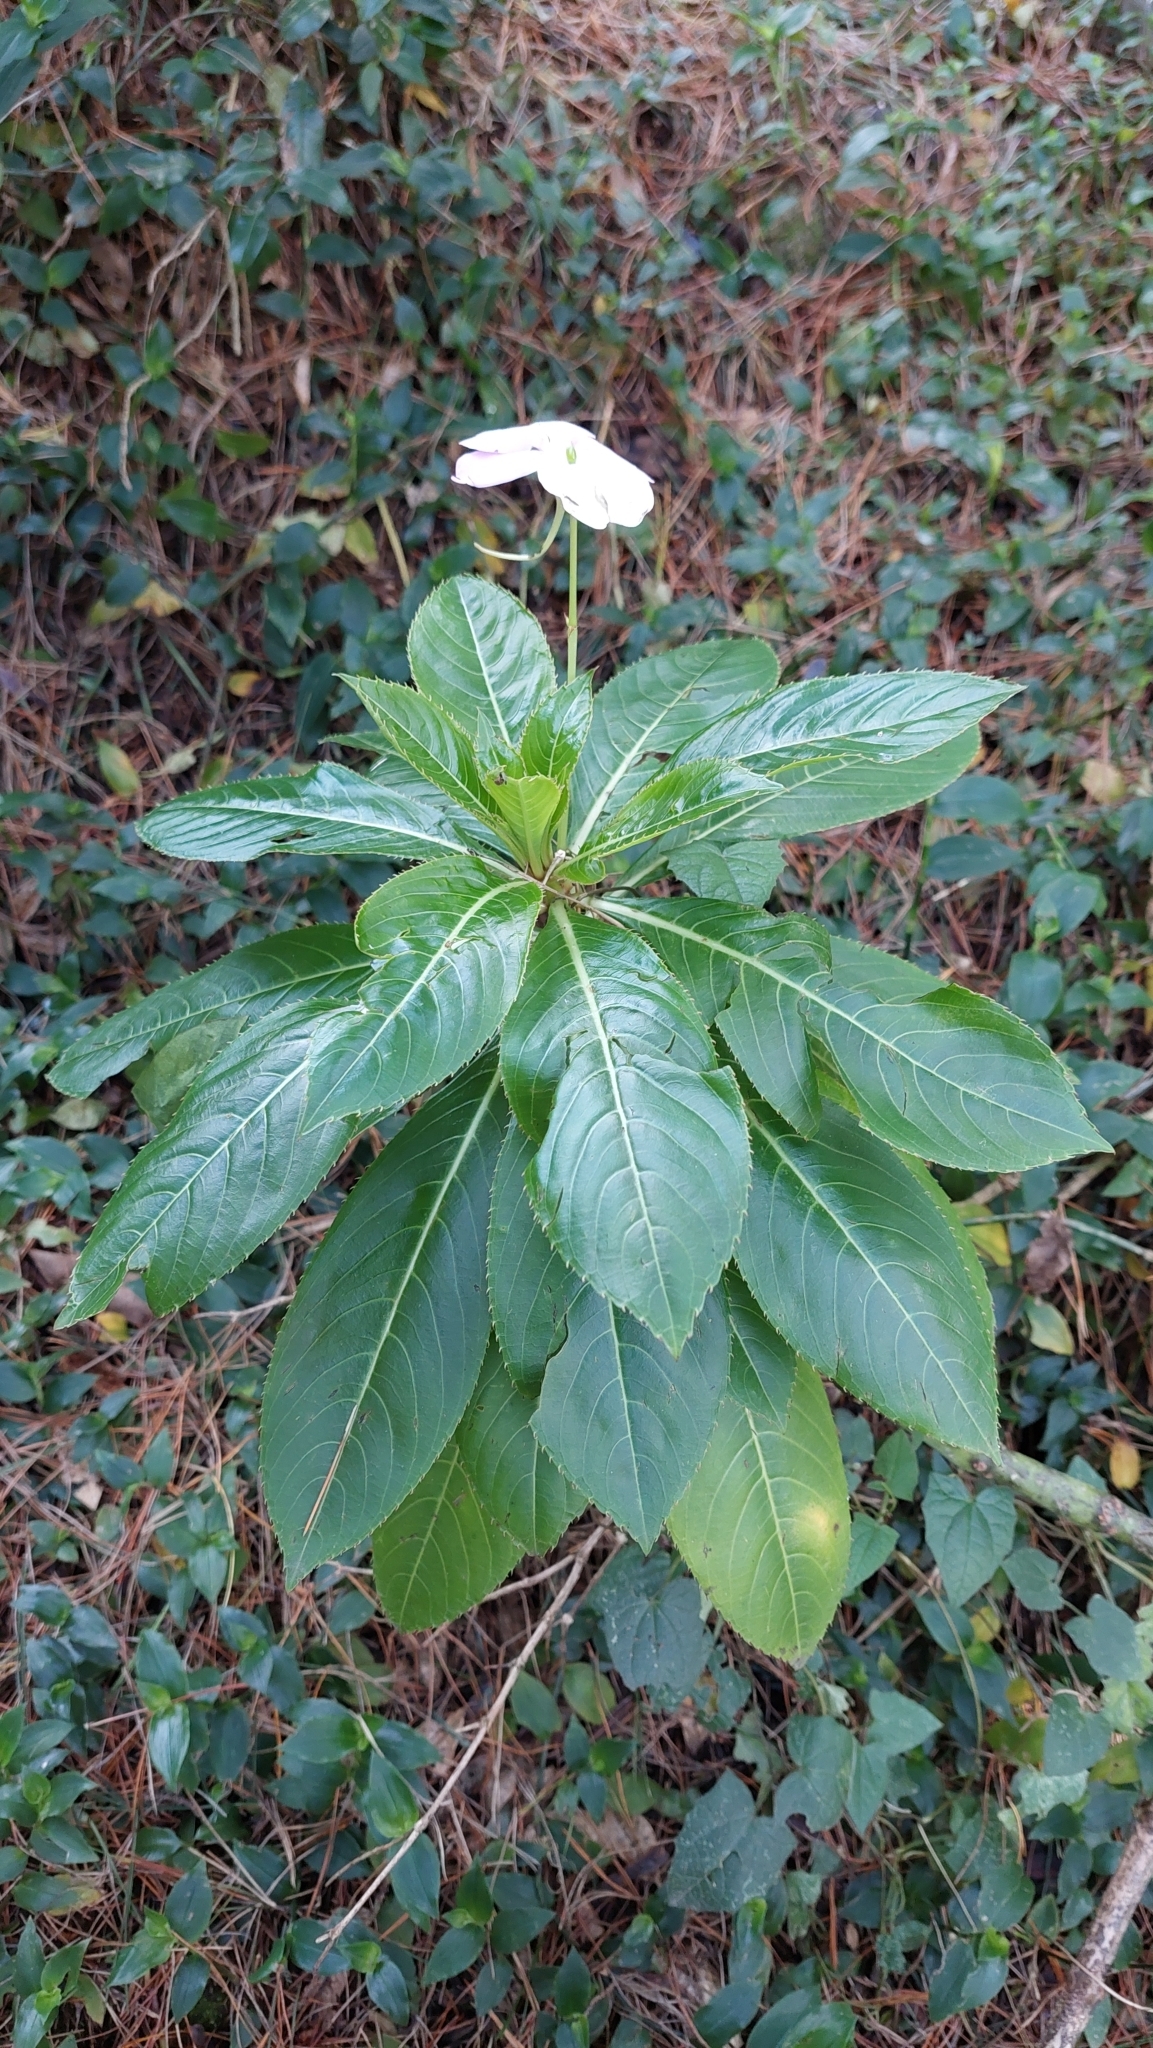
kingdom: Plantae
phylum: Tracheophyta
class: Magnoliopsida
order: Ericales
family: Balsaminaceae
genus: Impatiens
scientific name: Impatiens sodenii
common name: Oliver's touch-me-not
